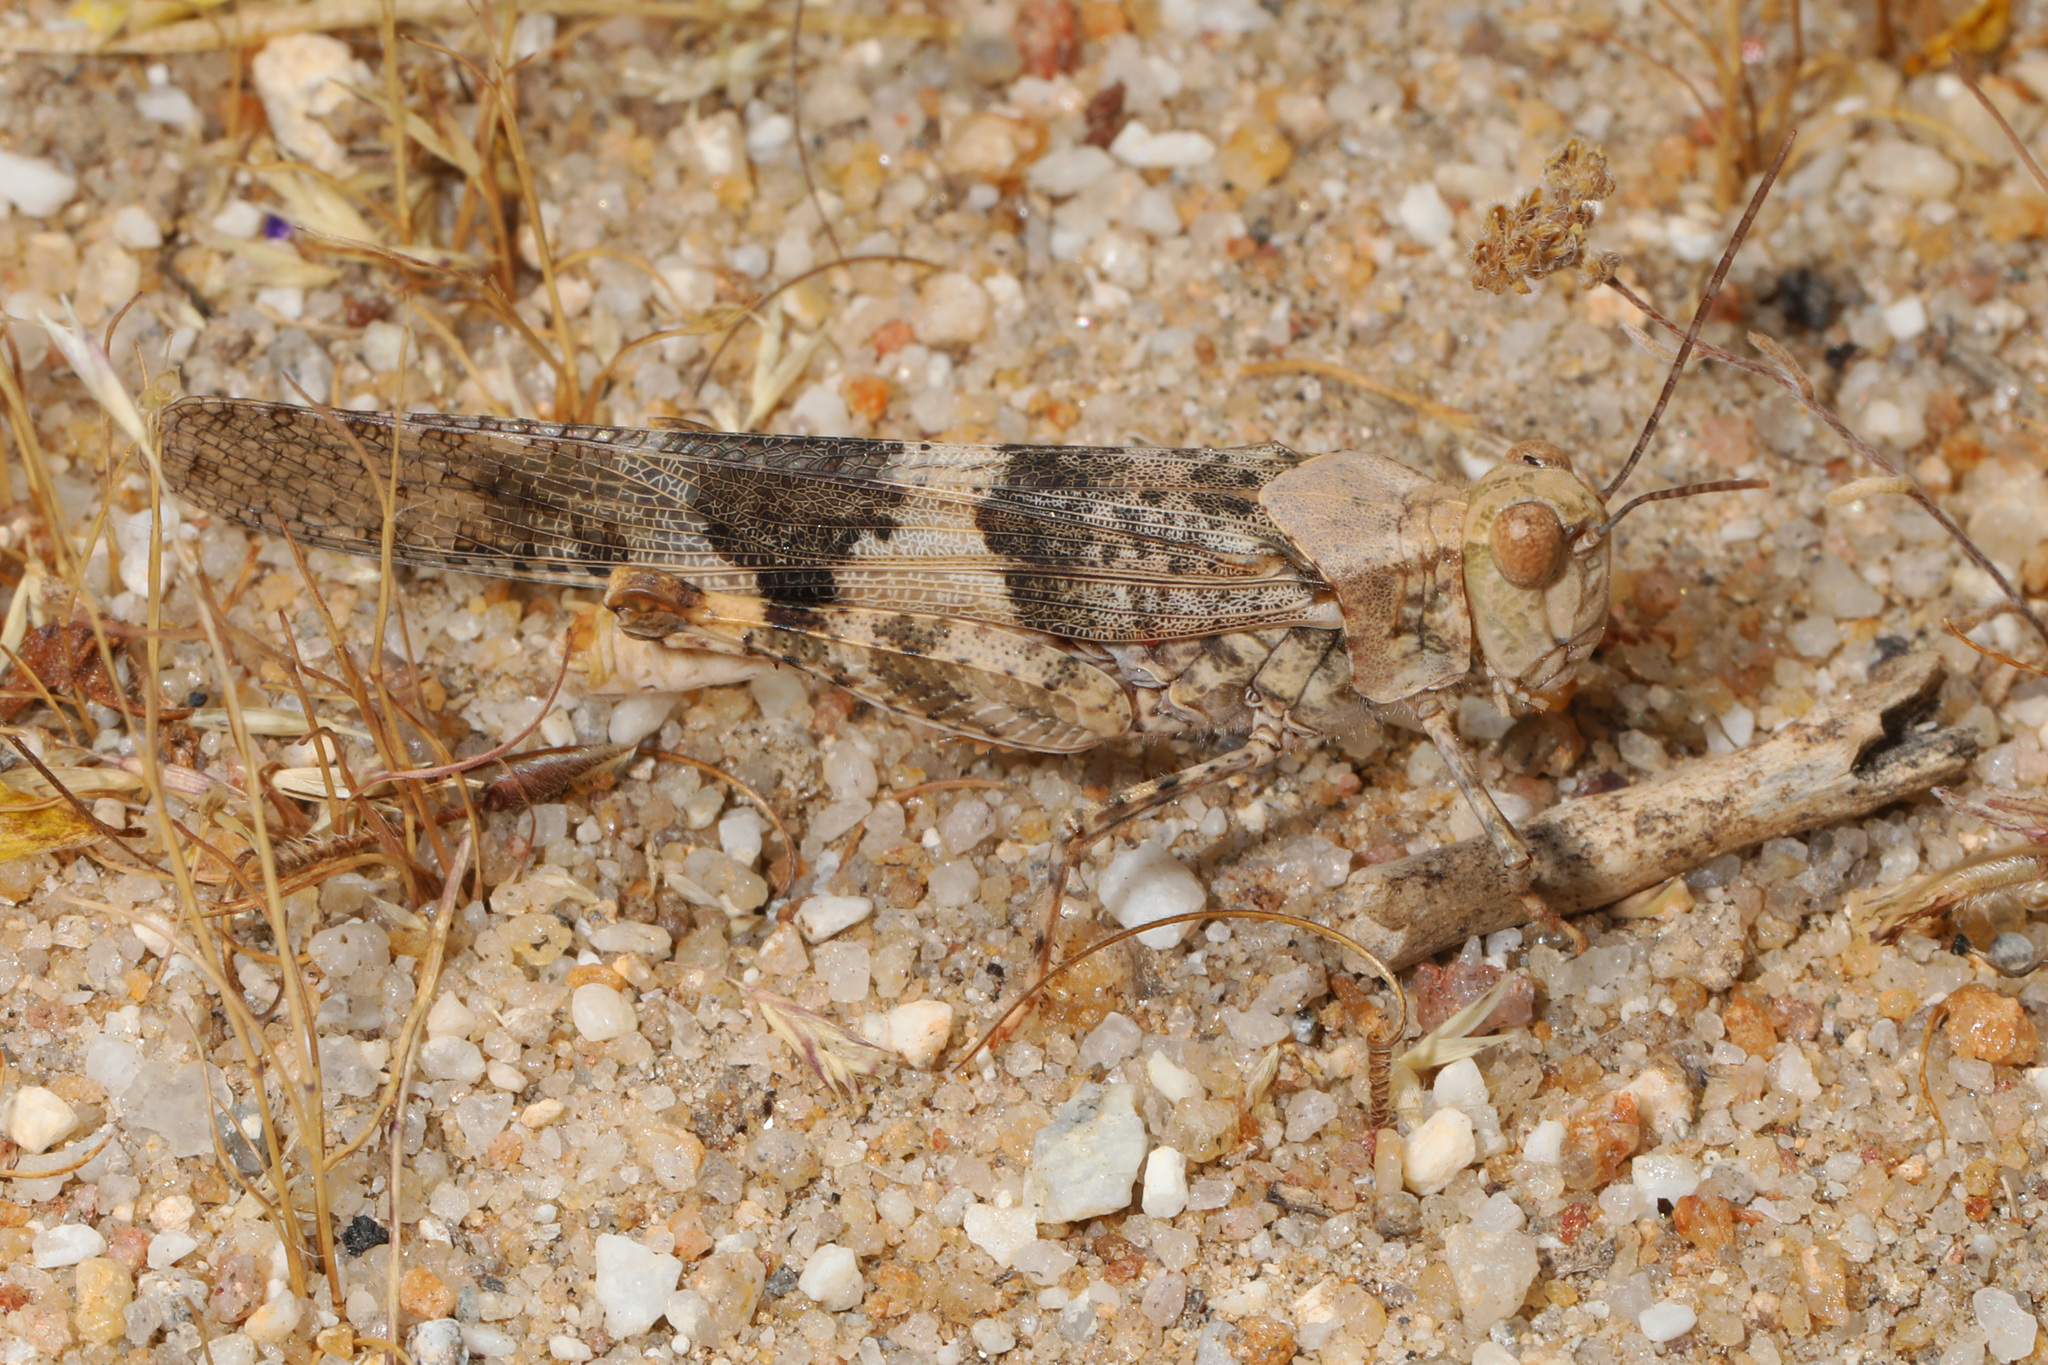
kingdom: Animalia
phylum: Arthropoda
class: Insecta
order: Orthoptera
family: Acrididae
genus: Trimerotropis
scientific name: Trimerotropis pallidipennis
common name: Pallid-winged grasshopper
